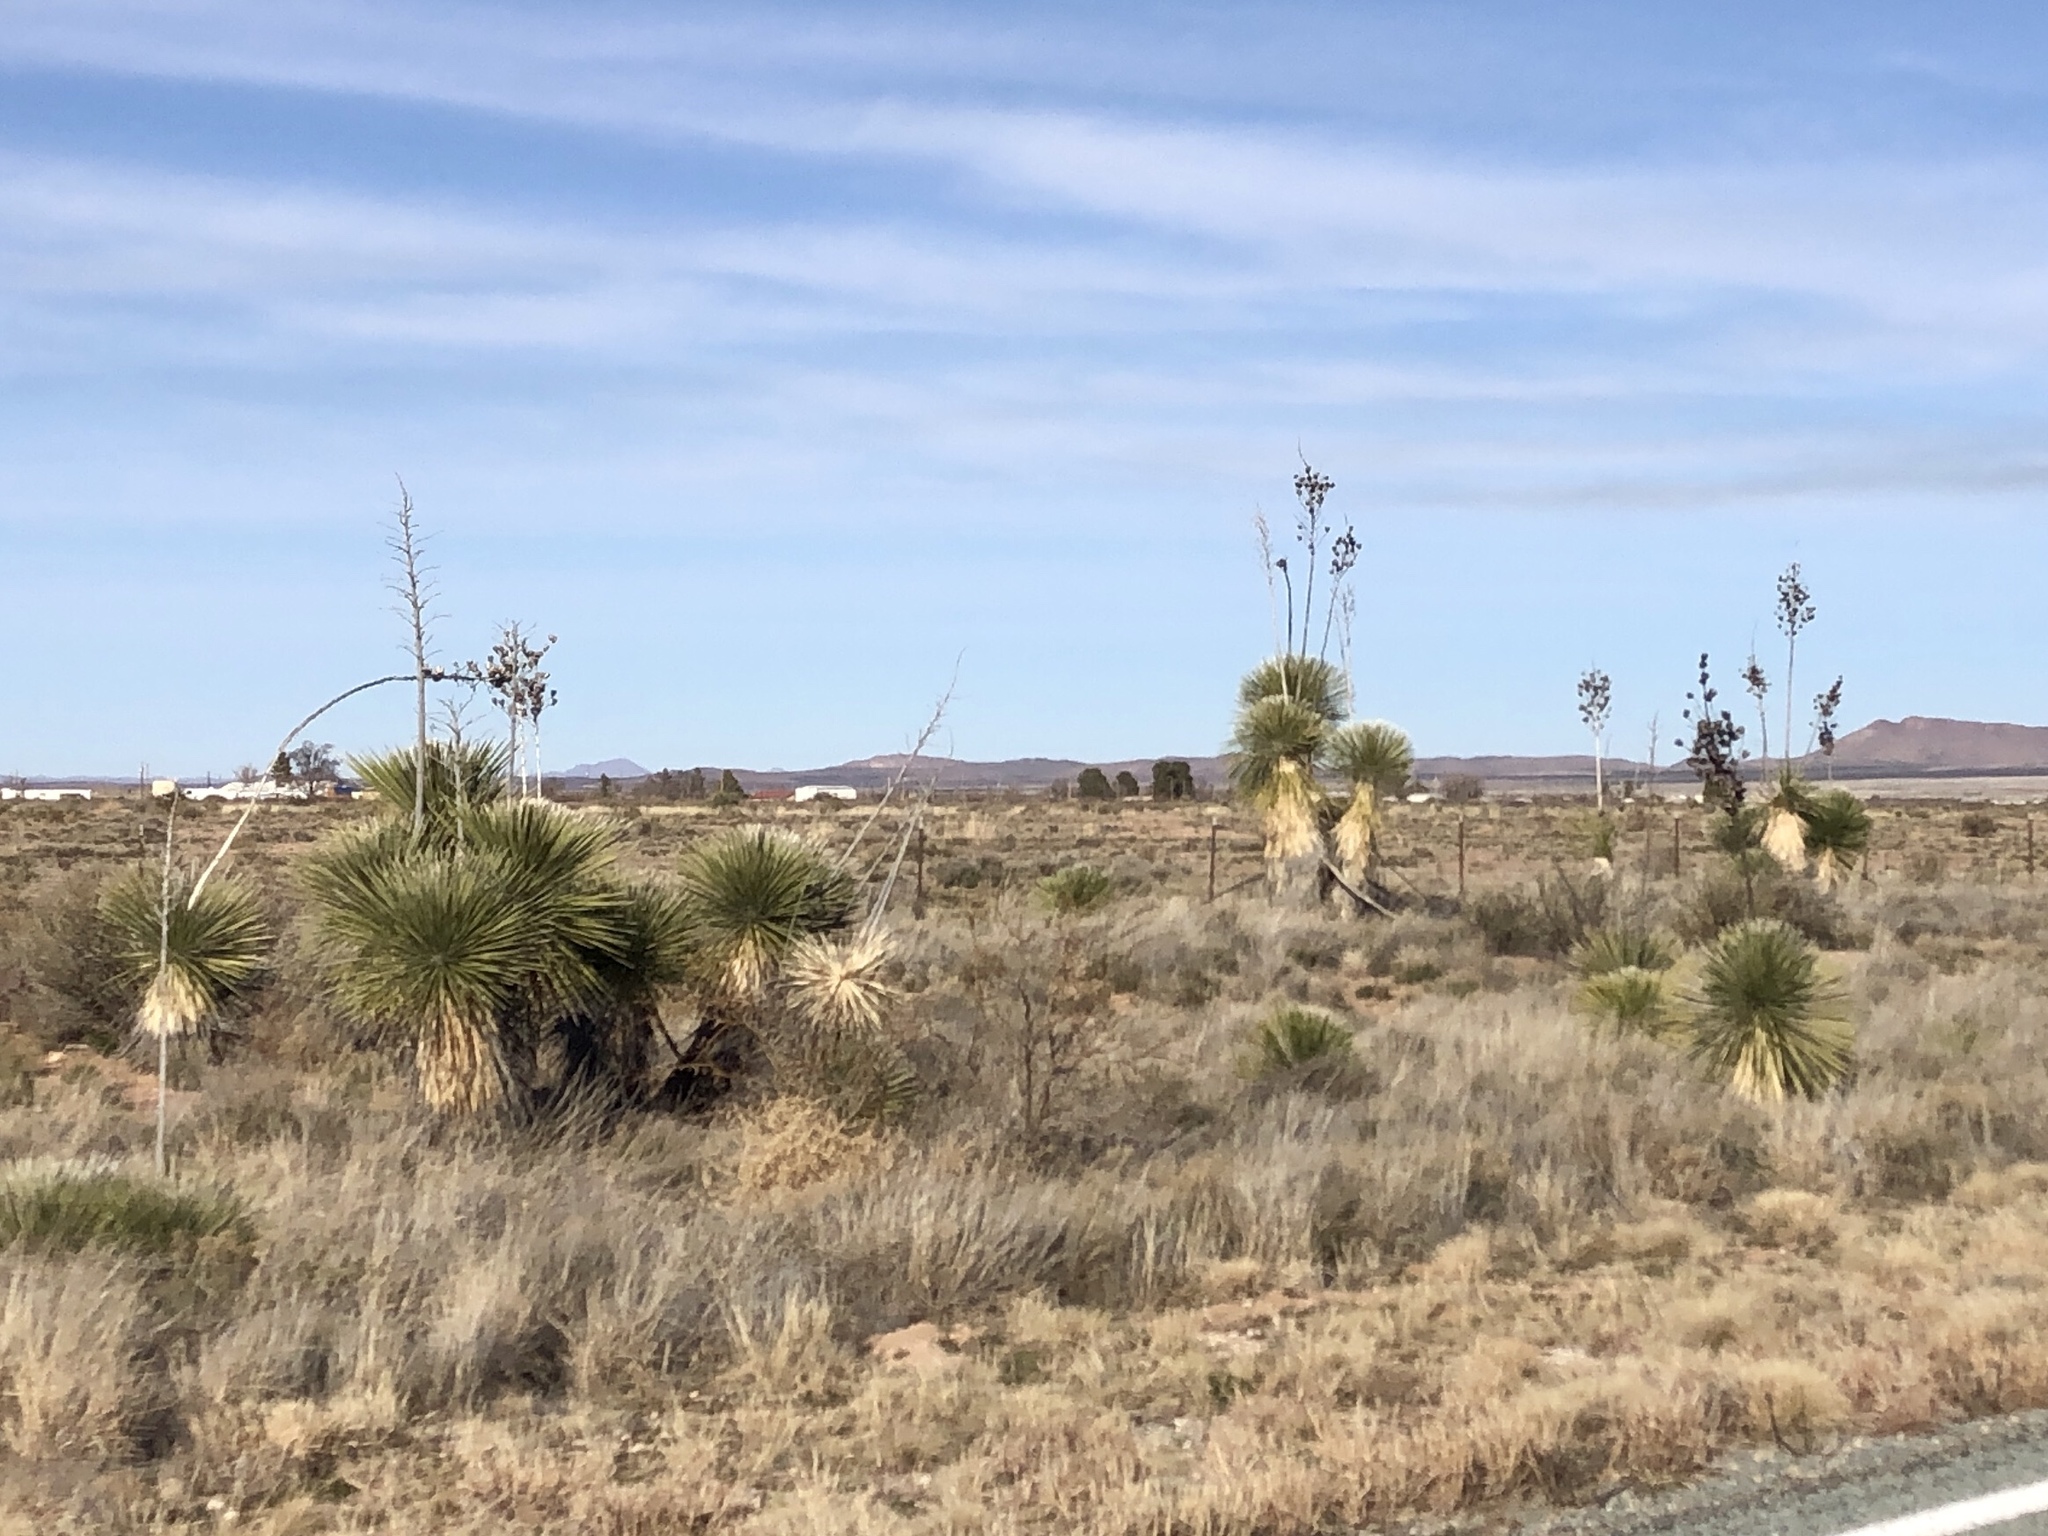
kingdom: Plantae
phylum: Tracheophyta
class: Liliopsida
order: Asparagales
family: Asparagaceae
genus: Yucca
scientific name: Yucca elata
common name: Palmella
